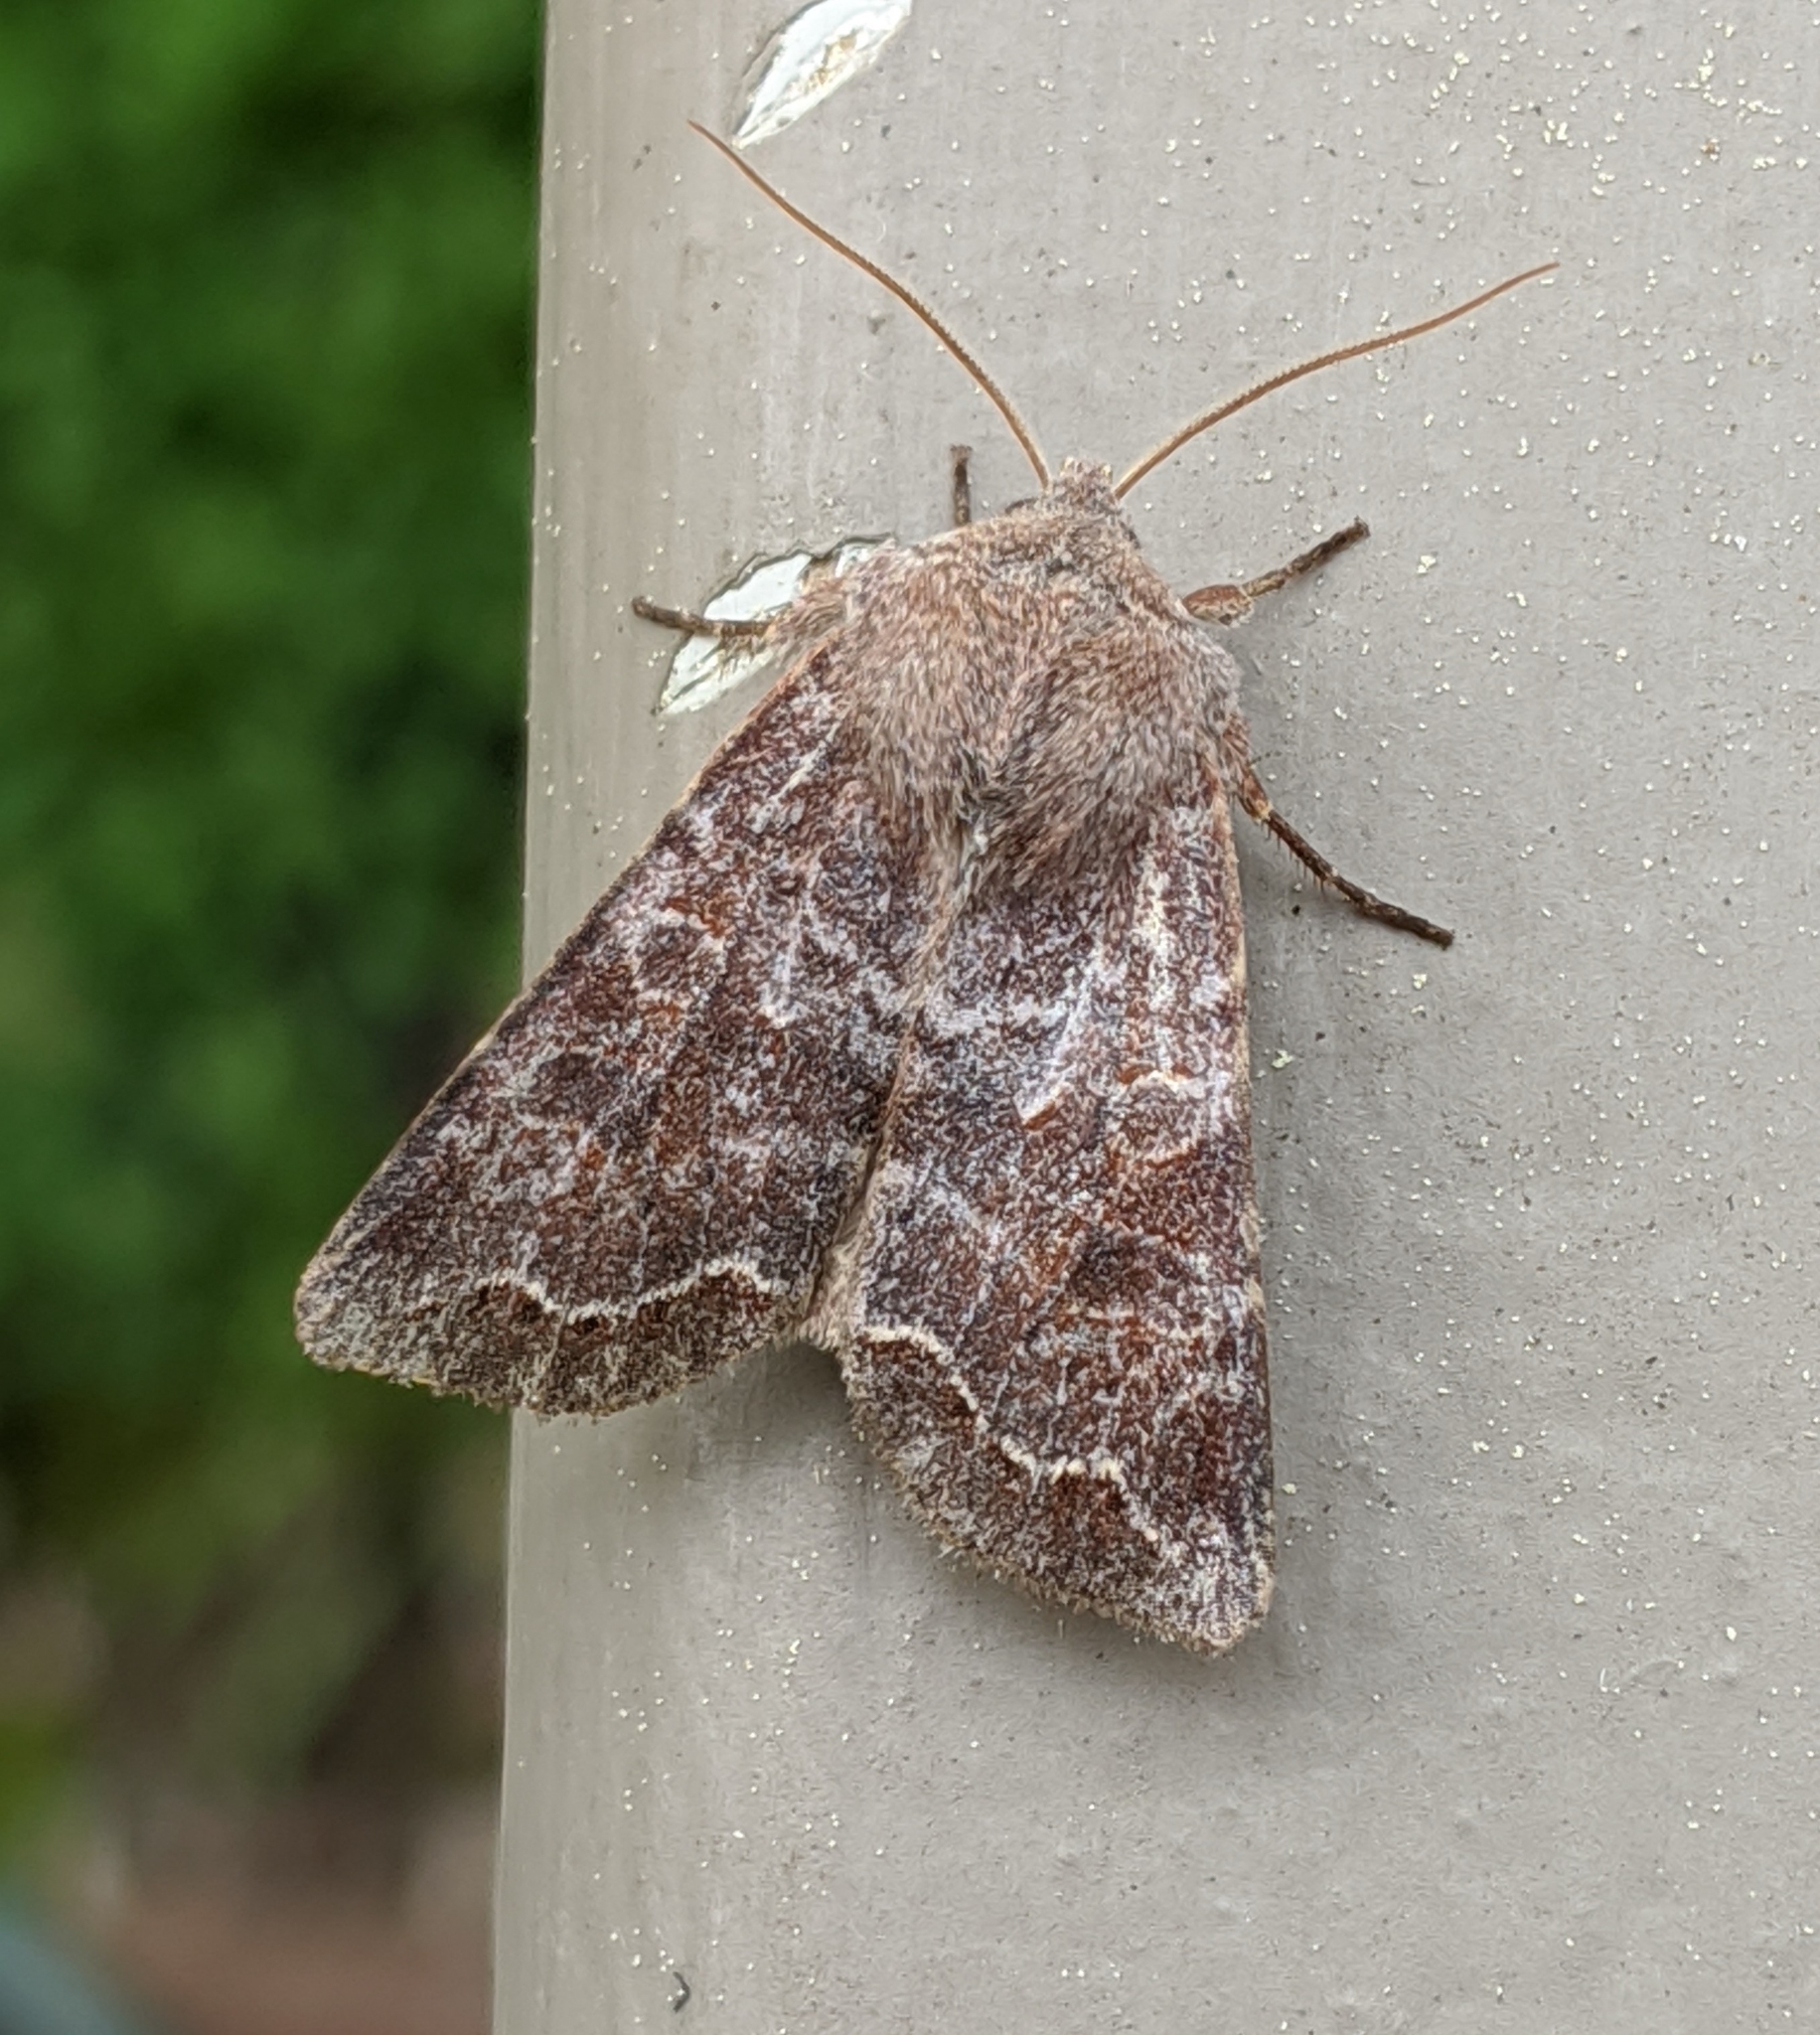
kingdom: Animalia
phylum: Arthropoda
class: Insecta
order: Lepidoptera
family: Noctuidae
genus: Orthosia
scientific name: Orthosia revicta
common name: Rusty whitesided caterpillar
